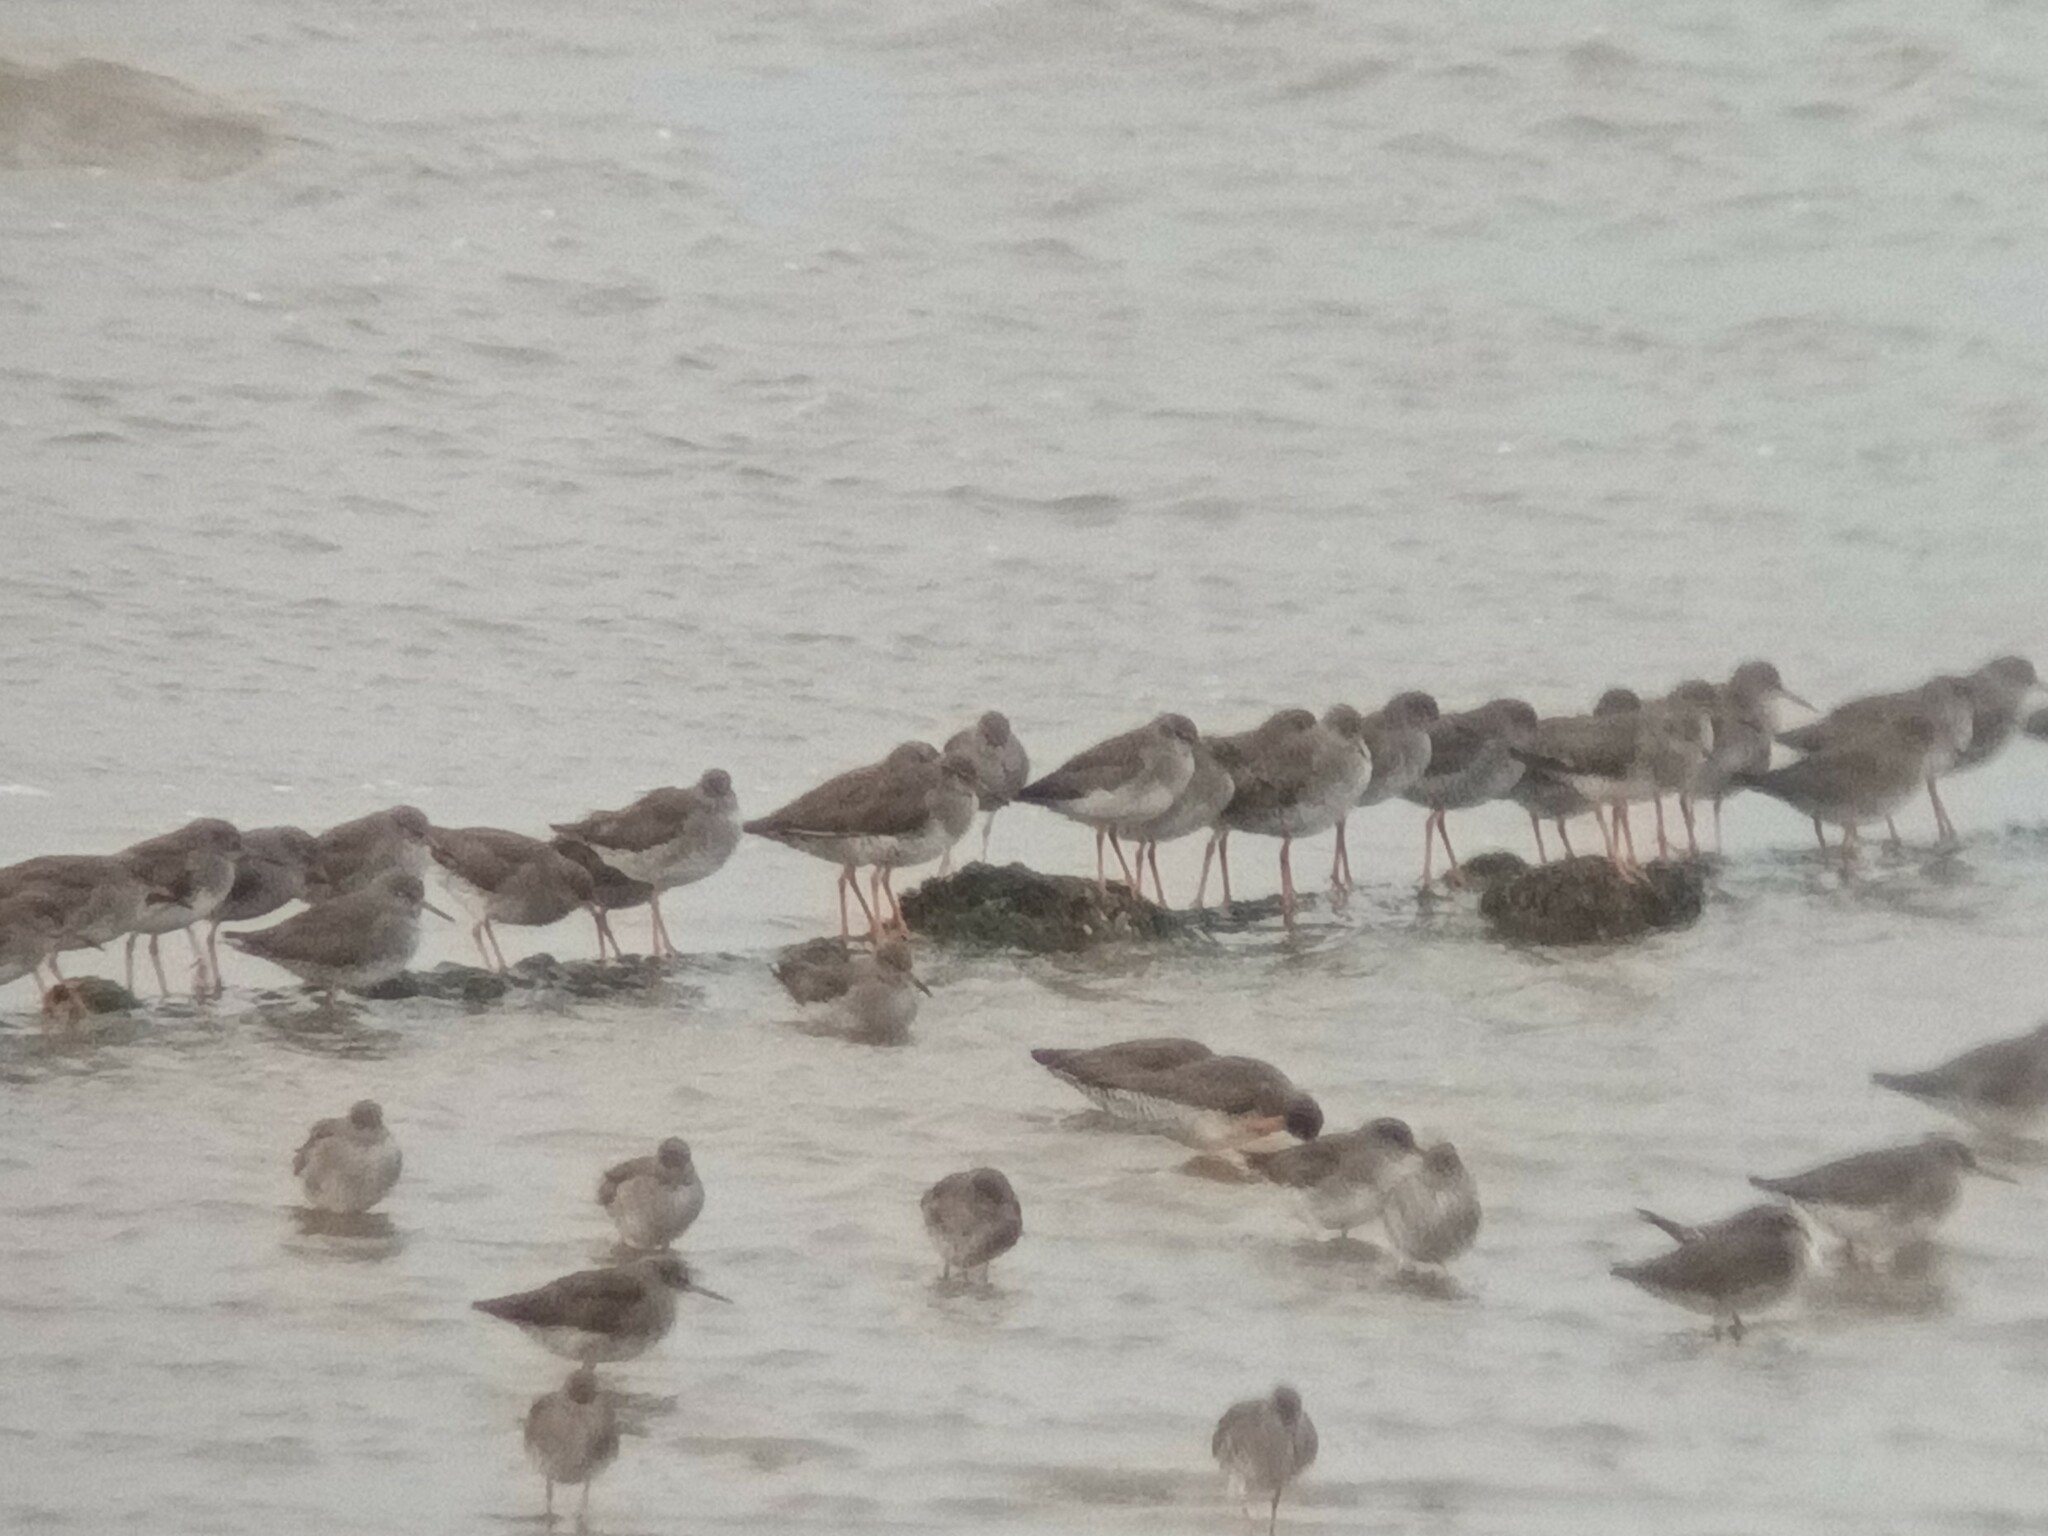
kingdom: Animalia
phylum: Chordata
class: Aves
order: Charadriiformes
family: Scolopacidae
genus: Tringa
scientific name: Tringa totanus
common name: Common redshank
